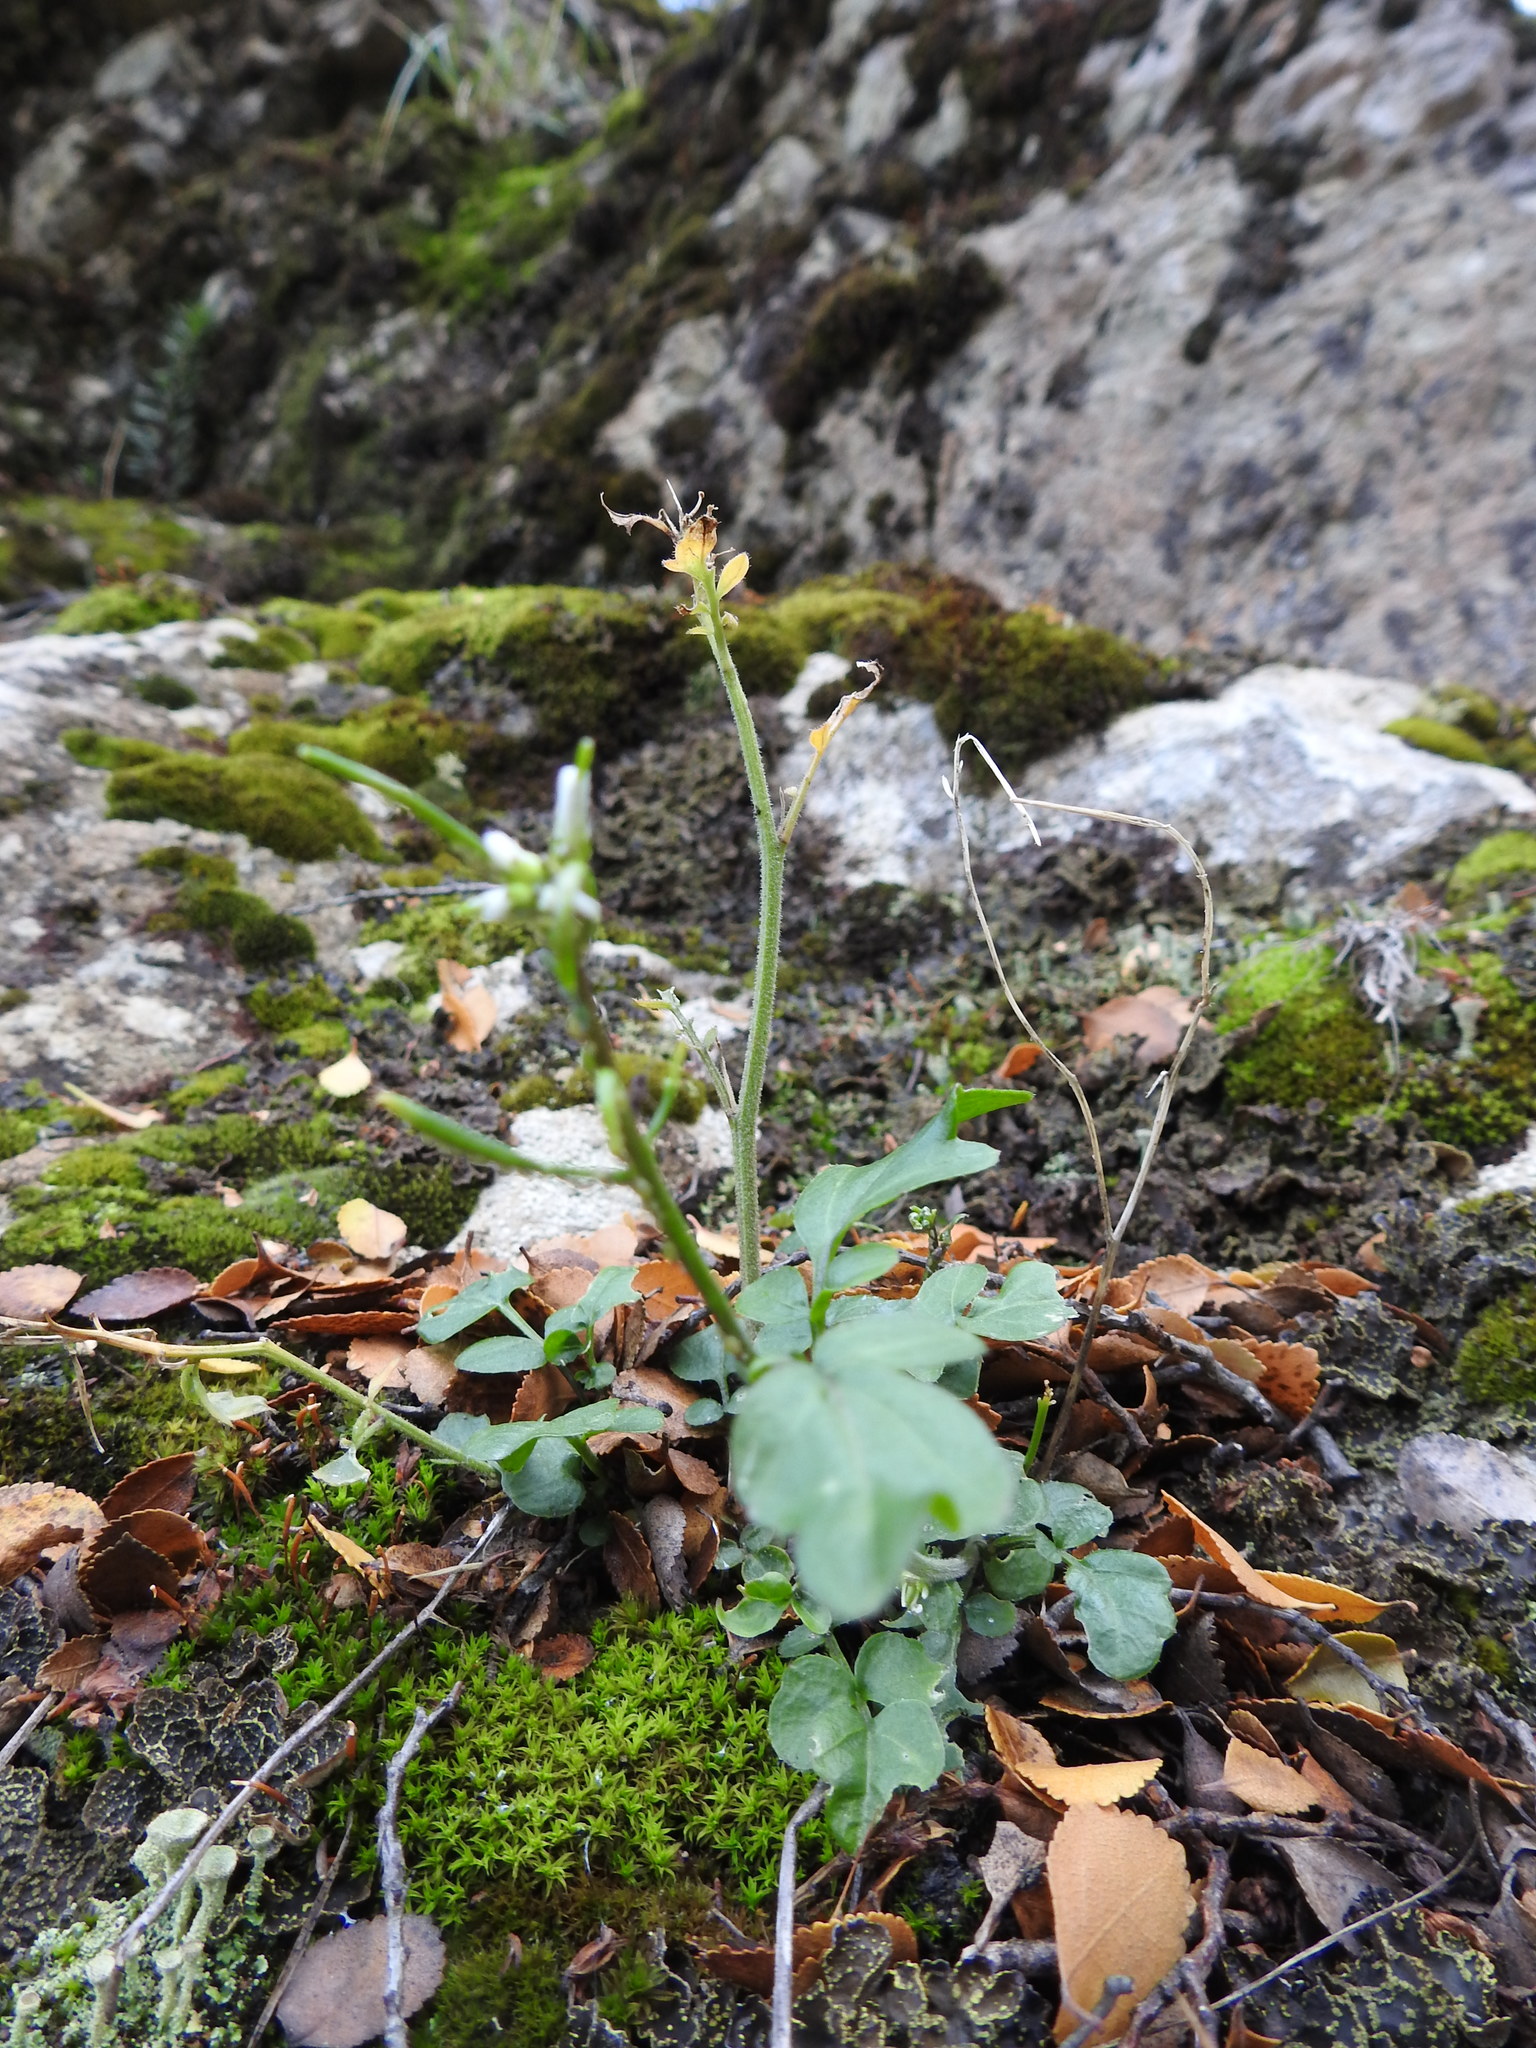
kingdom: Plantae
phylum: Tracheophyta
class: Magnoliopsida
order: Brassicales
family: Brassicaceae
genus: Cardamine
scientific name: Cardamine glacialis
